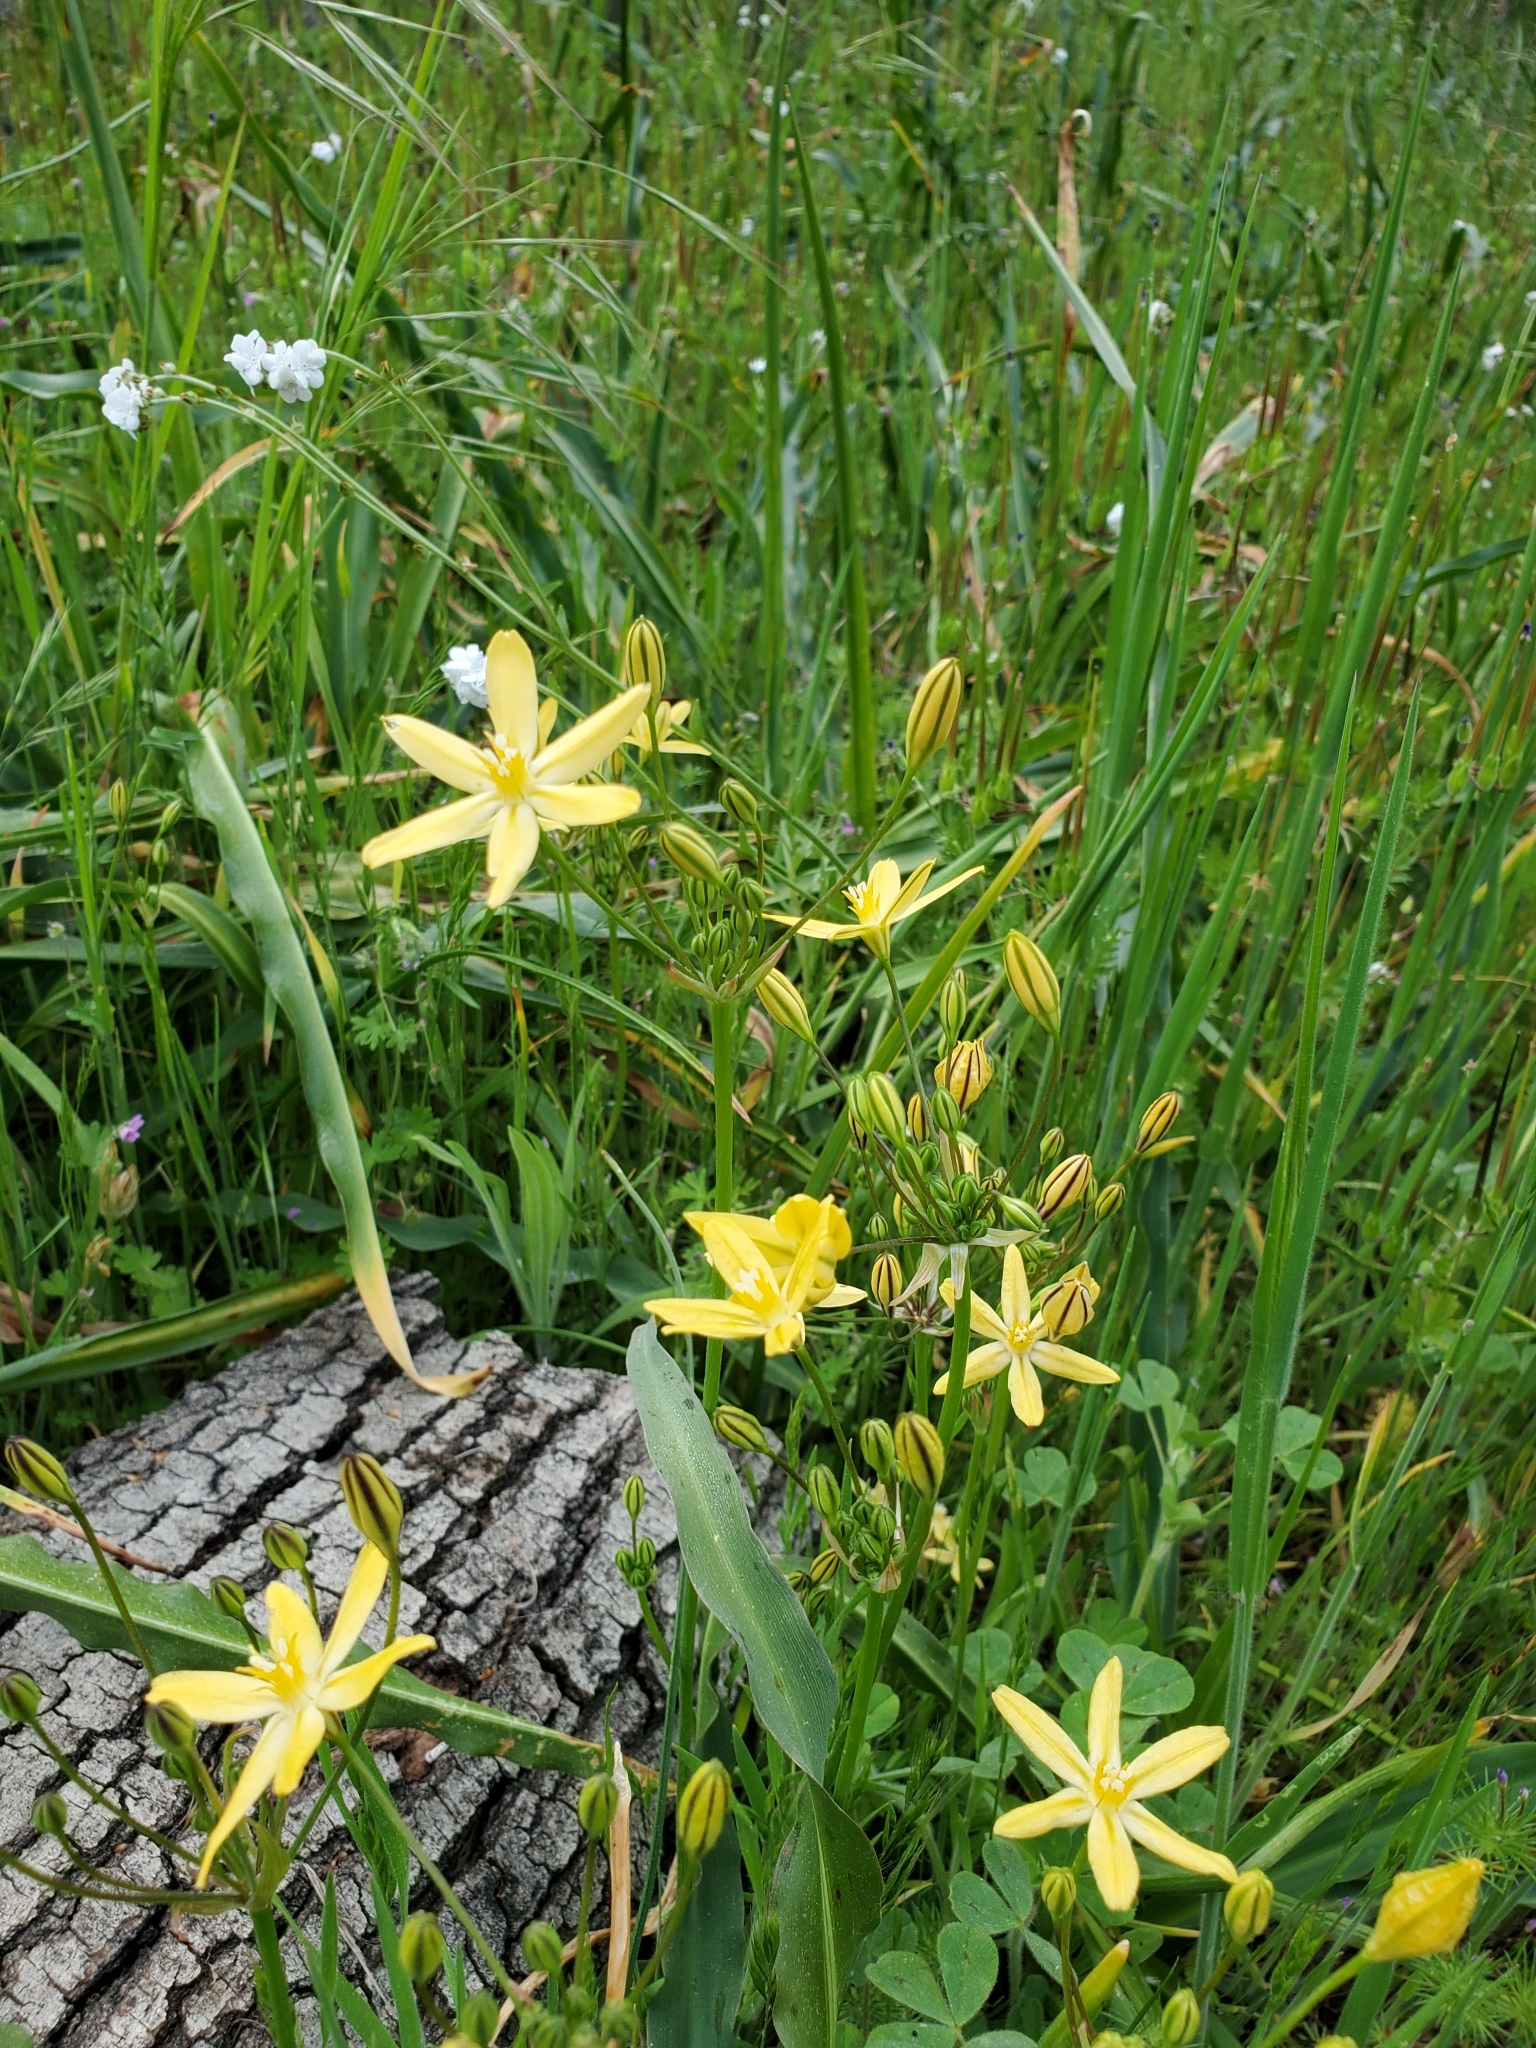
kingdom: Plantae
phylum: Tracheophyta
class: Liliopsida
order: Asparagales
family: Asparagaceae
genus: Triteleia
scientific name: Triteleia ixioides
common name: Yellow-brodiaea
